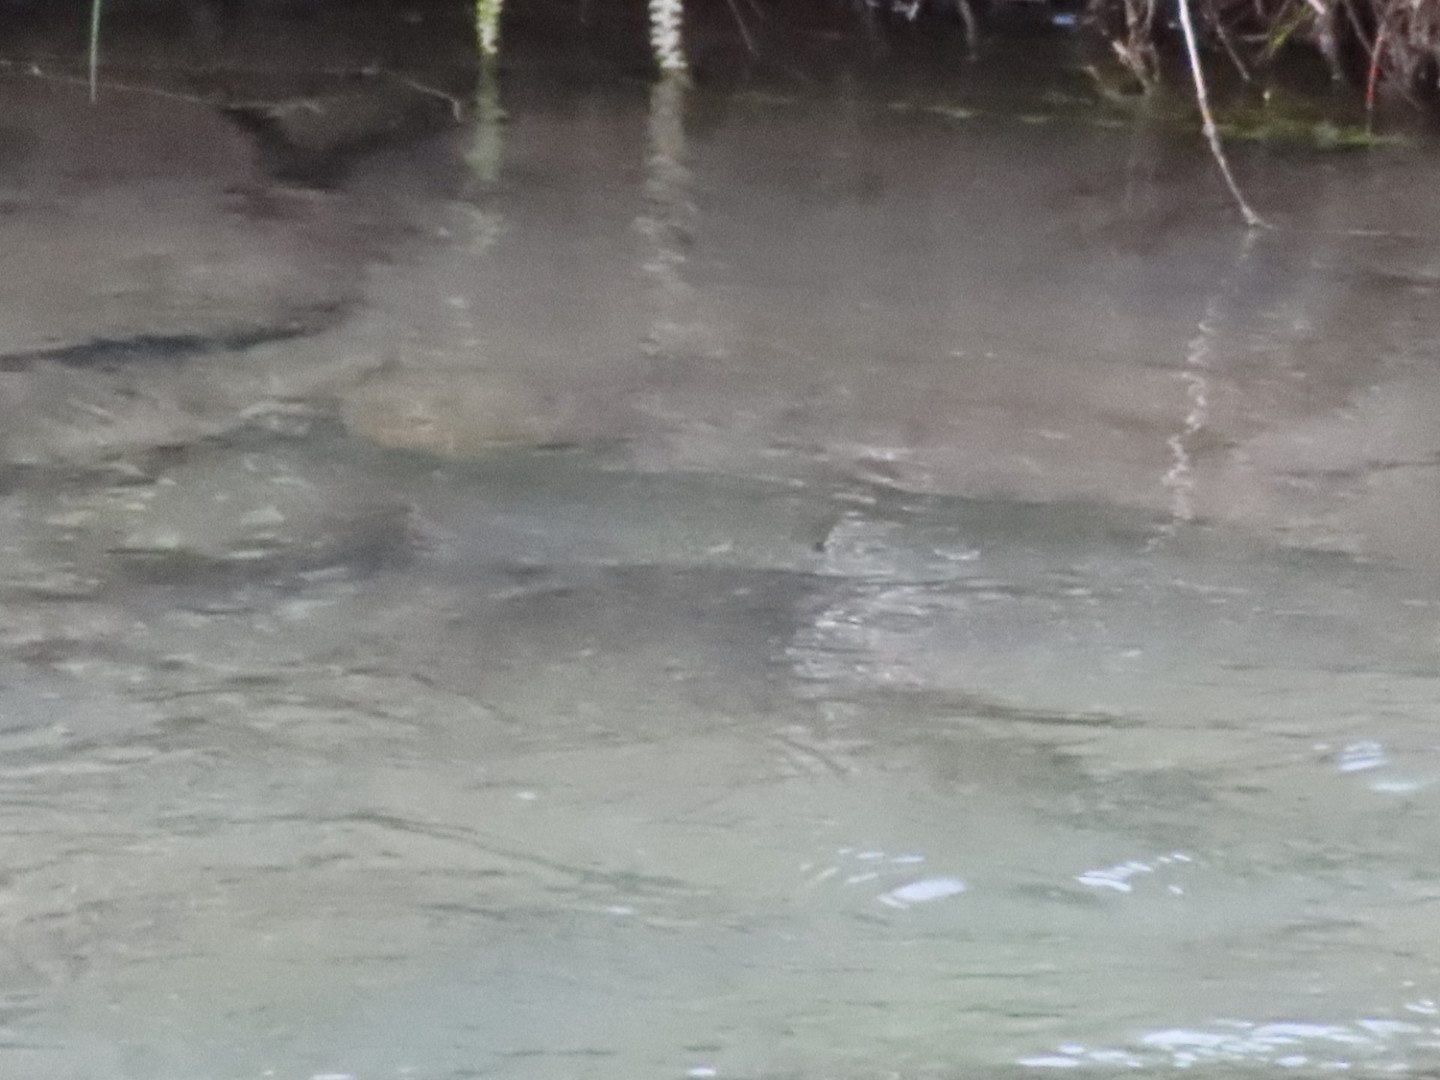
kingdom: Animalia
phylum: Chordata
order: Salmoniformes
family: Salmonidae
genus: Salmo
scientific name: Salmo trutta
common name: Brown trout
